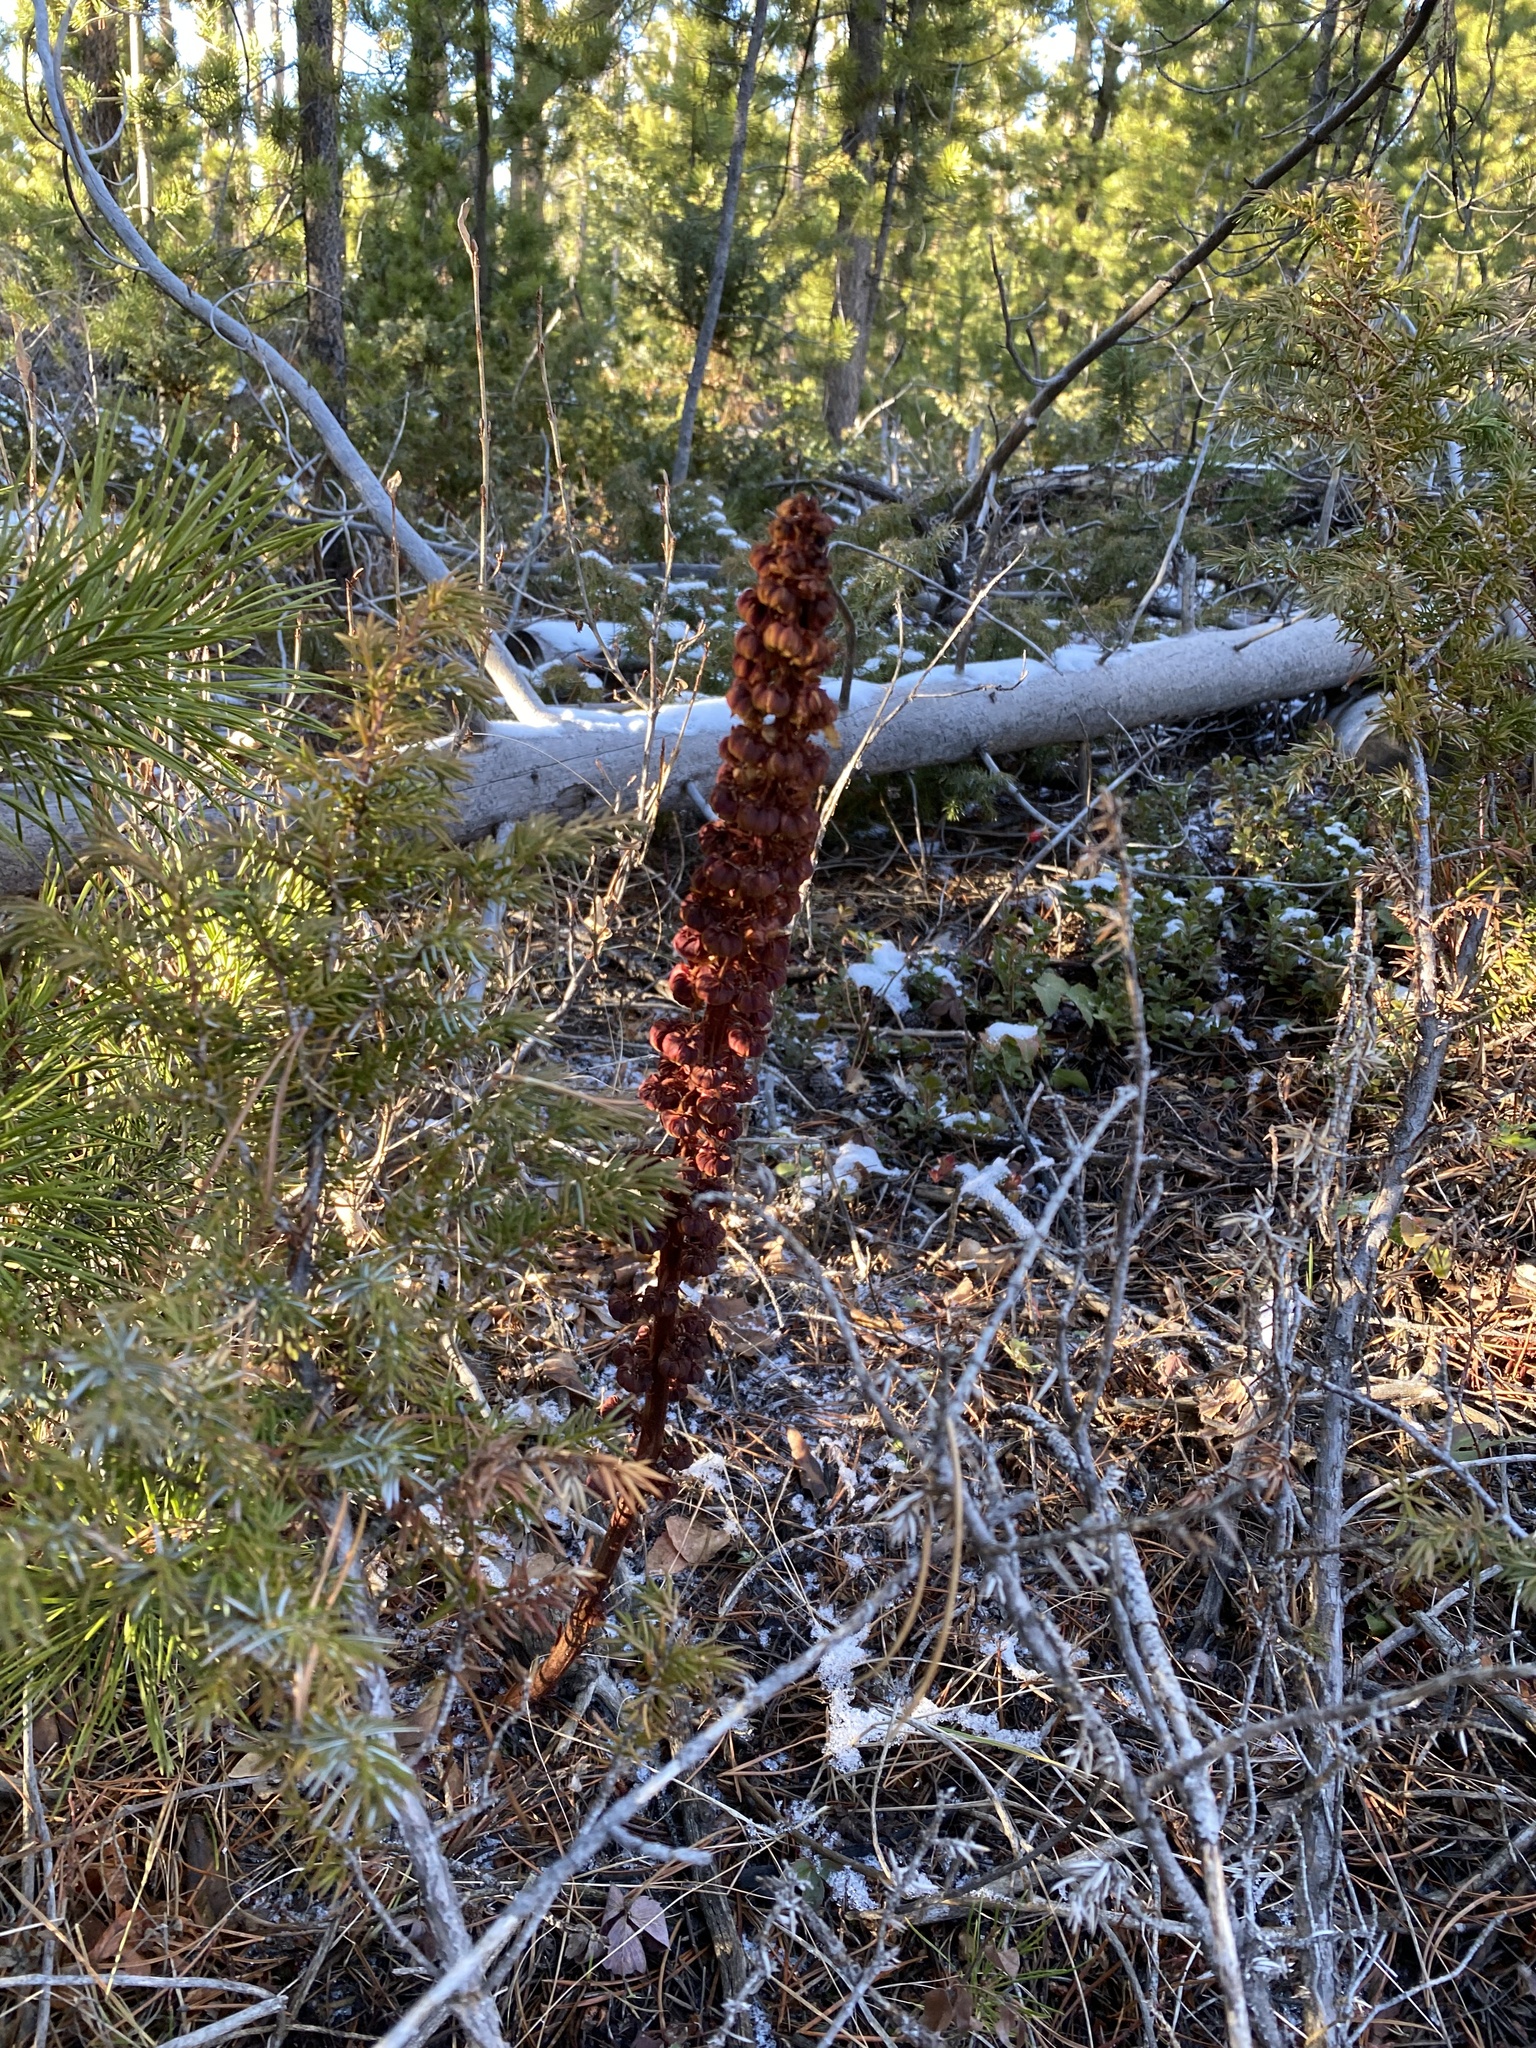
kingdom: Plantae
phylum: Tracheophyta
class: Magnoliopsida
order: Ericales
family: Ericaceae
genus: Pterospora
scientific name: Pterospora andromedea
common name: Giant bird's-nest
